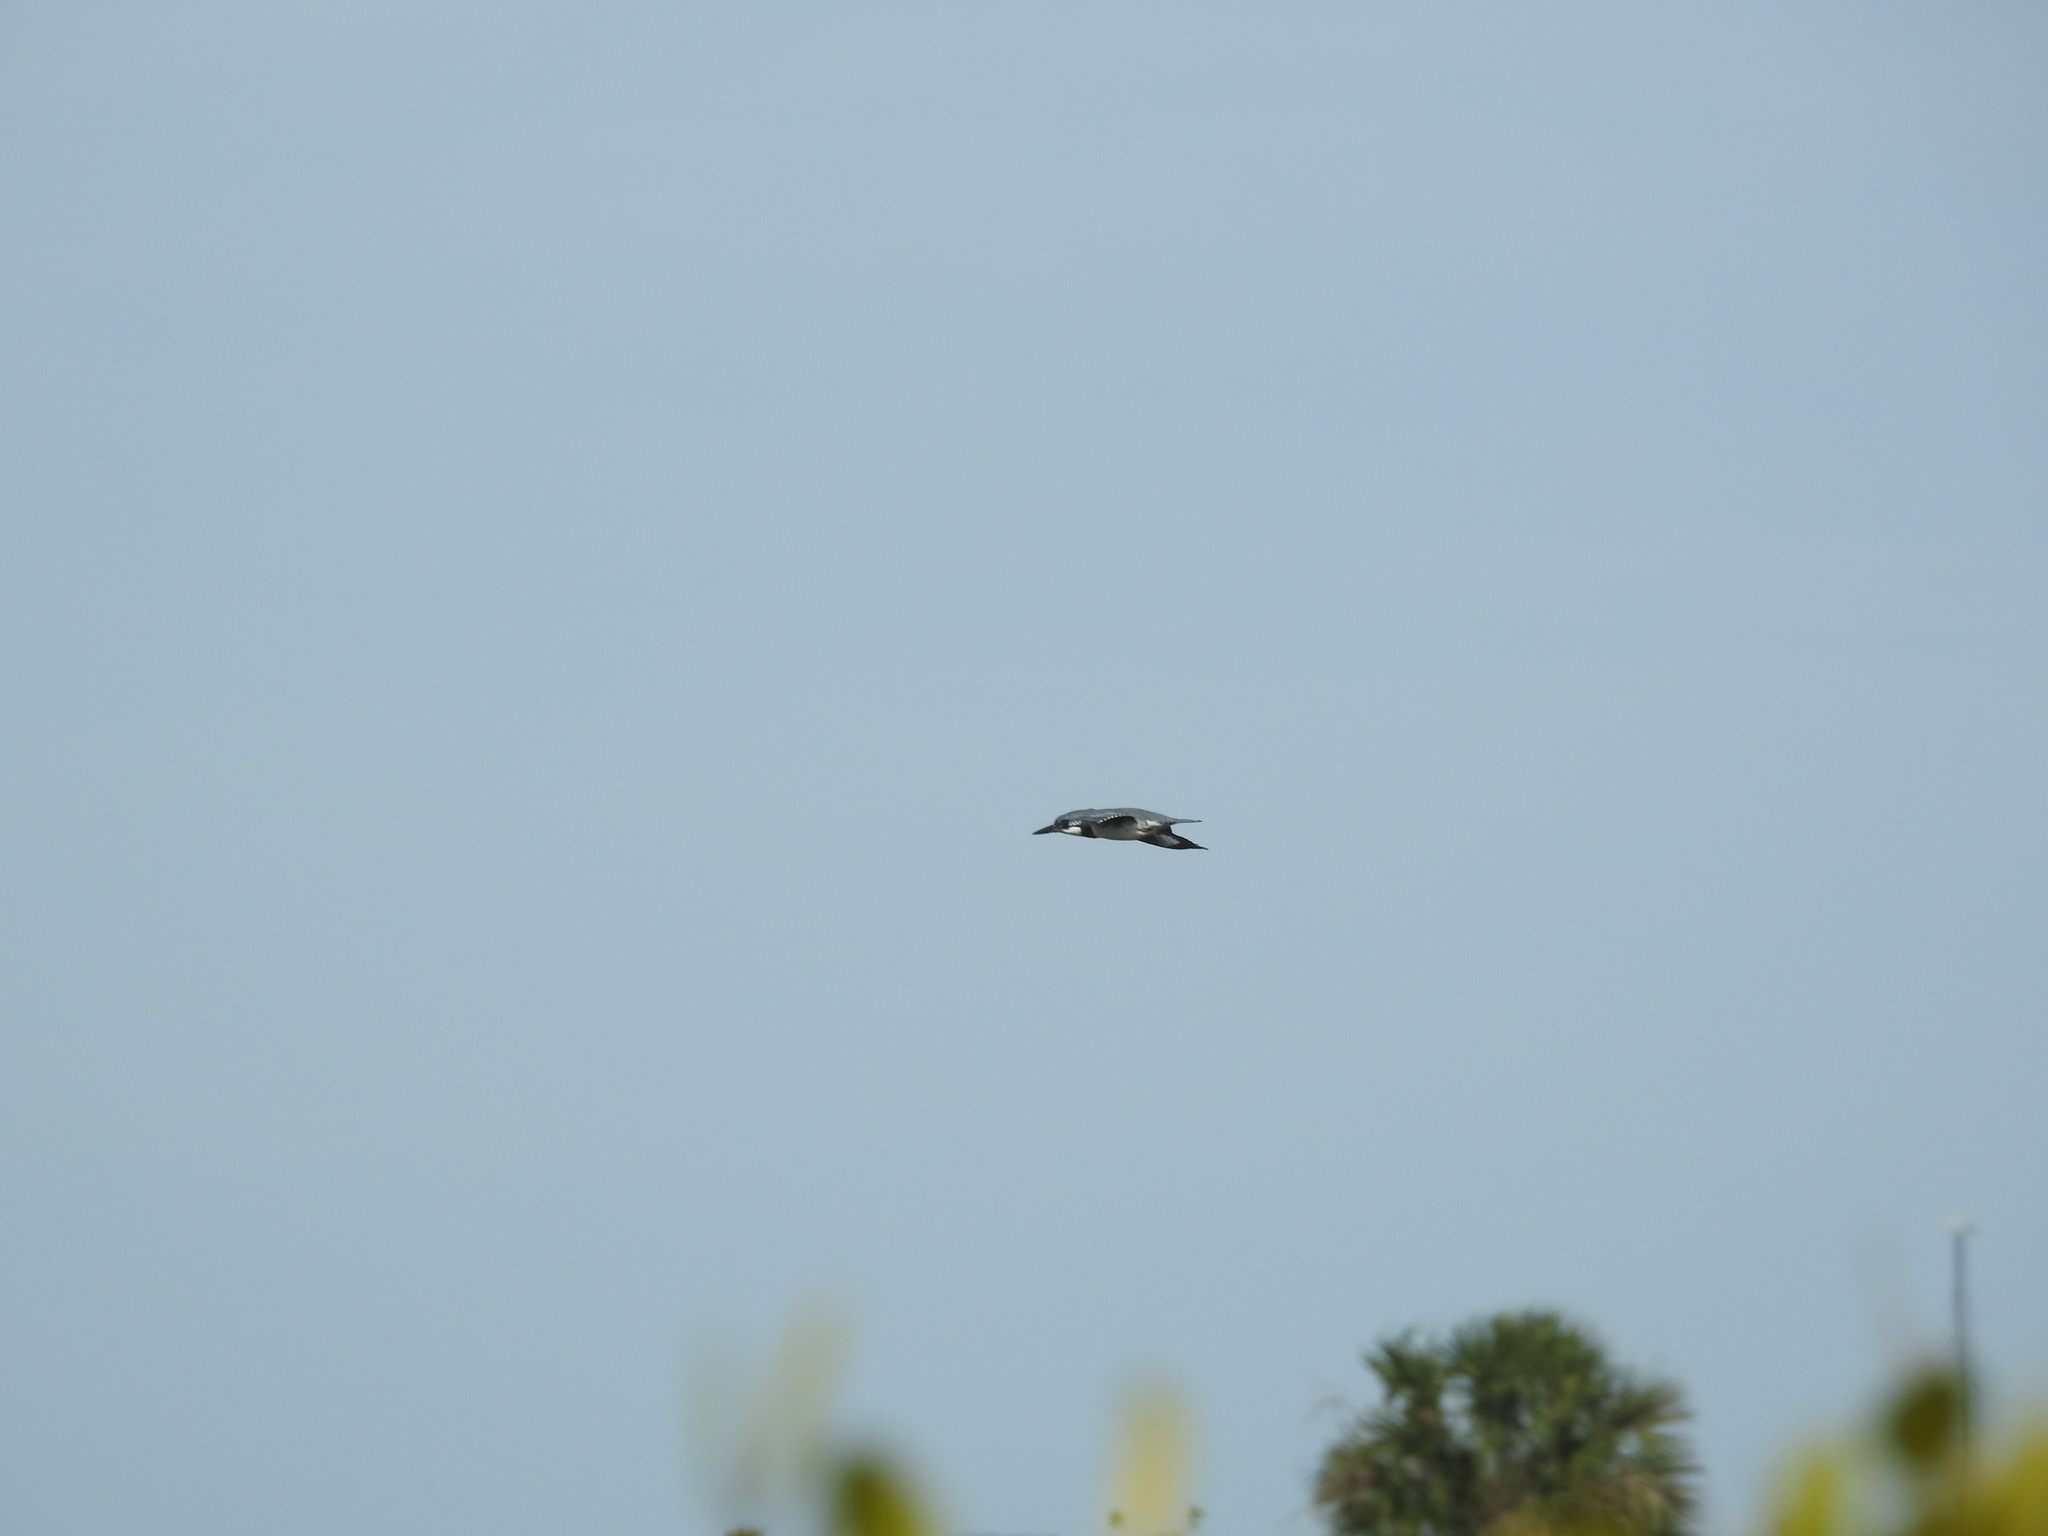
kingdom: Animalia
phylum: Chordata
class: Aves
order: Coraciiformes
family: Alcedinidae
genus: Megaceryle
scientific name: Megaceryle alcyon
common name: Belted kingfisher
